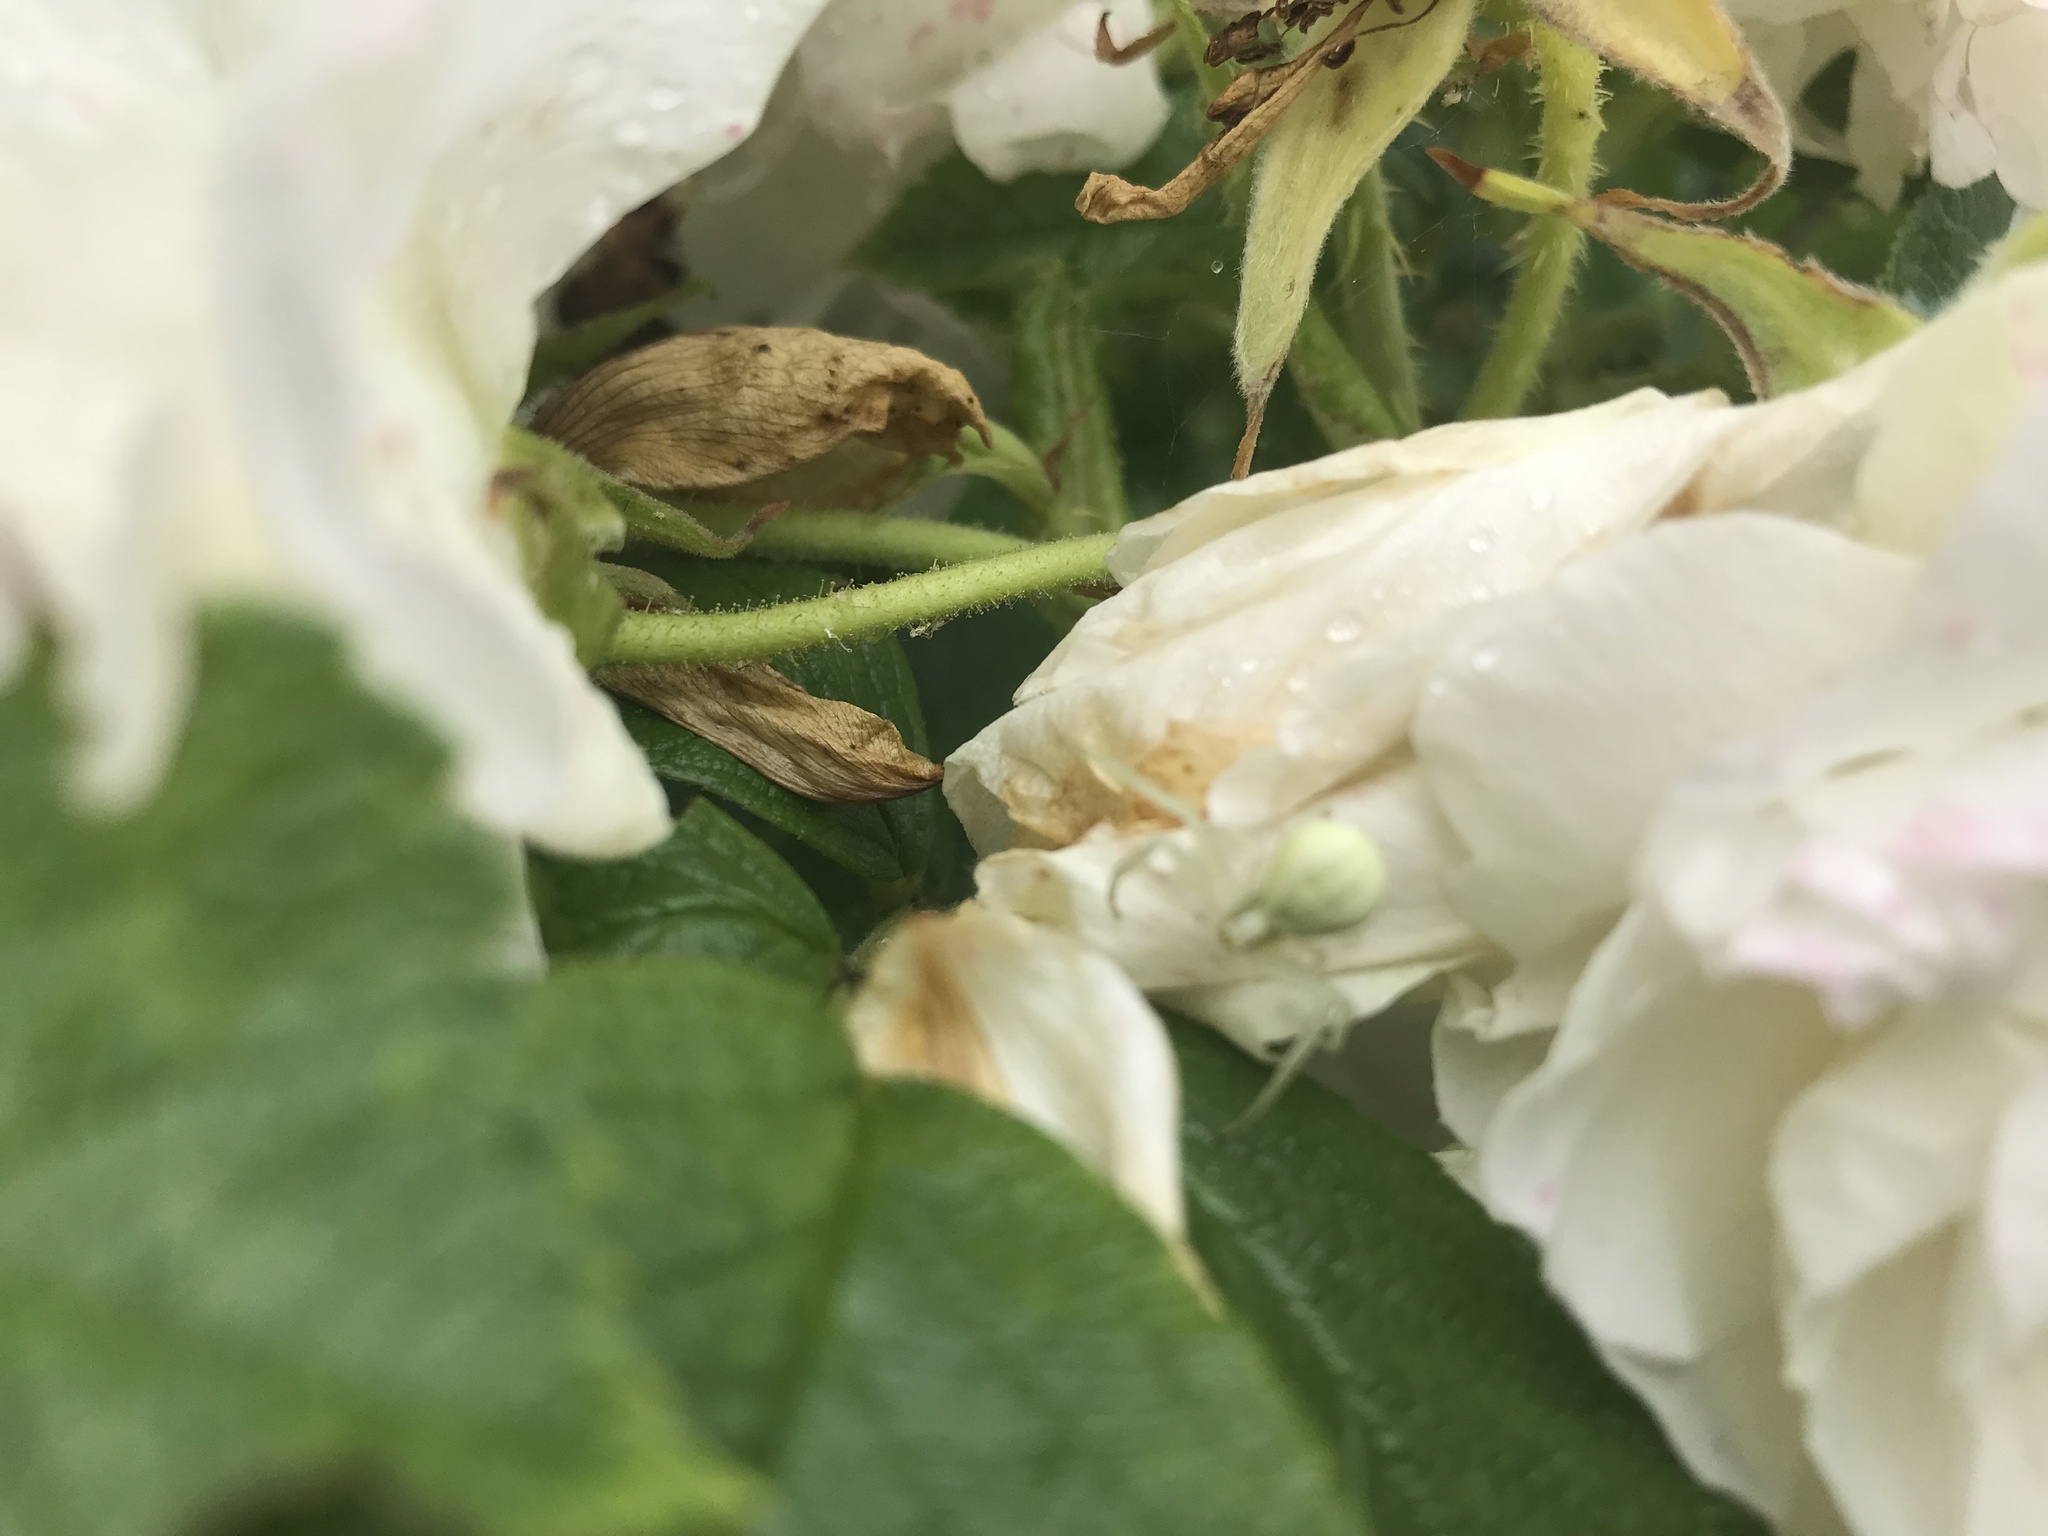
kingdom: Animalia
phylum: Arthropoda
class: Arachnida
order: Araneae
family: Thomisidae
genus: Misumena
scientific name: Misumena vatia
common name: Goldenrod crab spider
